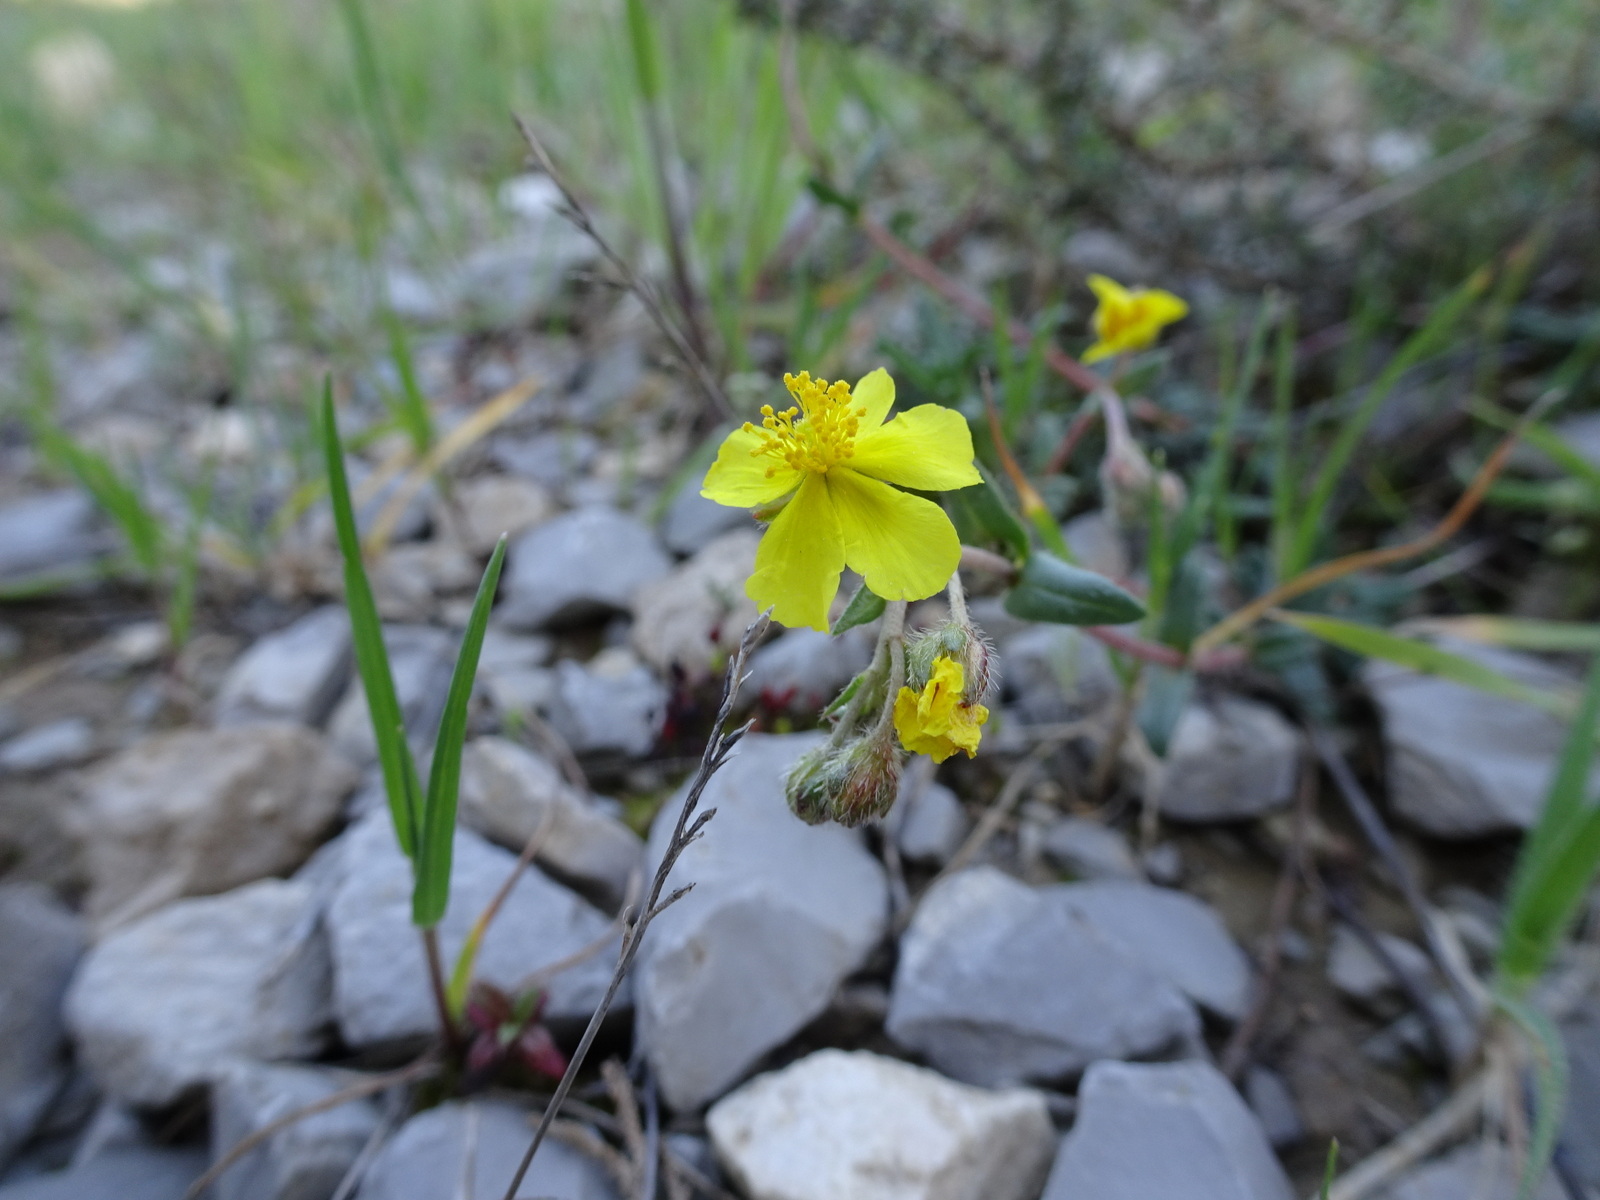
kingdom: Plantae
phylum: Tracheophyta
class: Magnoliopsida
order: Malvales
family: Cistaceae
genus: Helianthemum
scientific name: Helianthemum nummularium
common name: Common rock-rose
